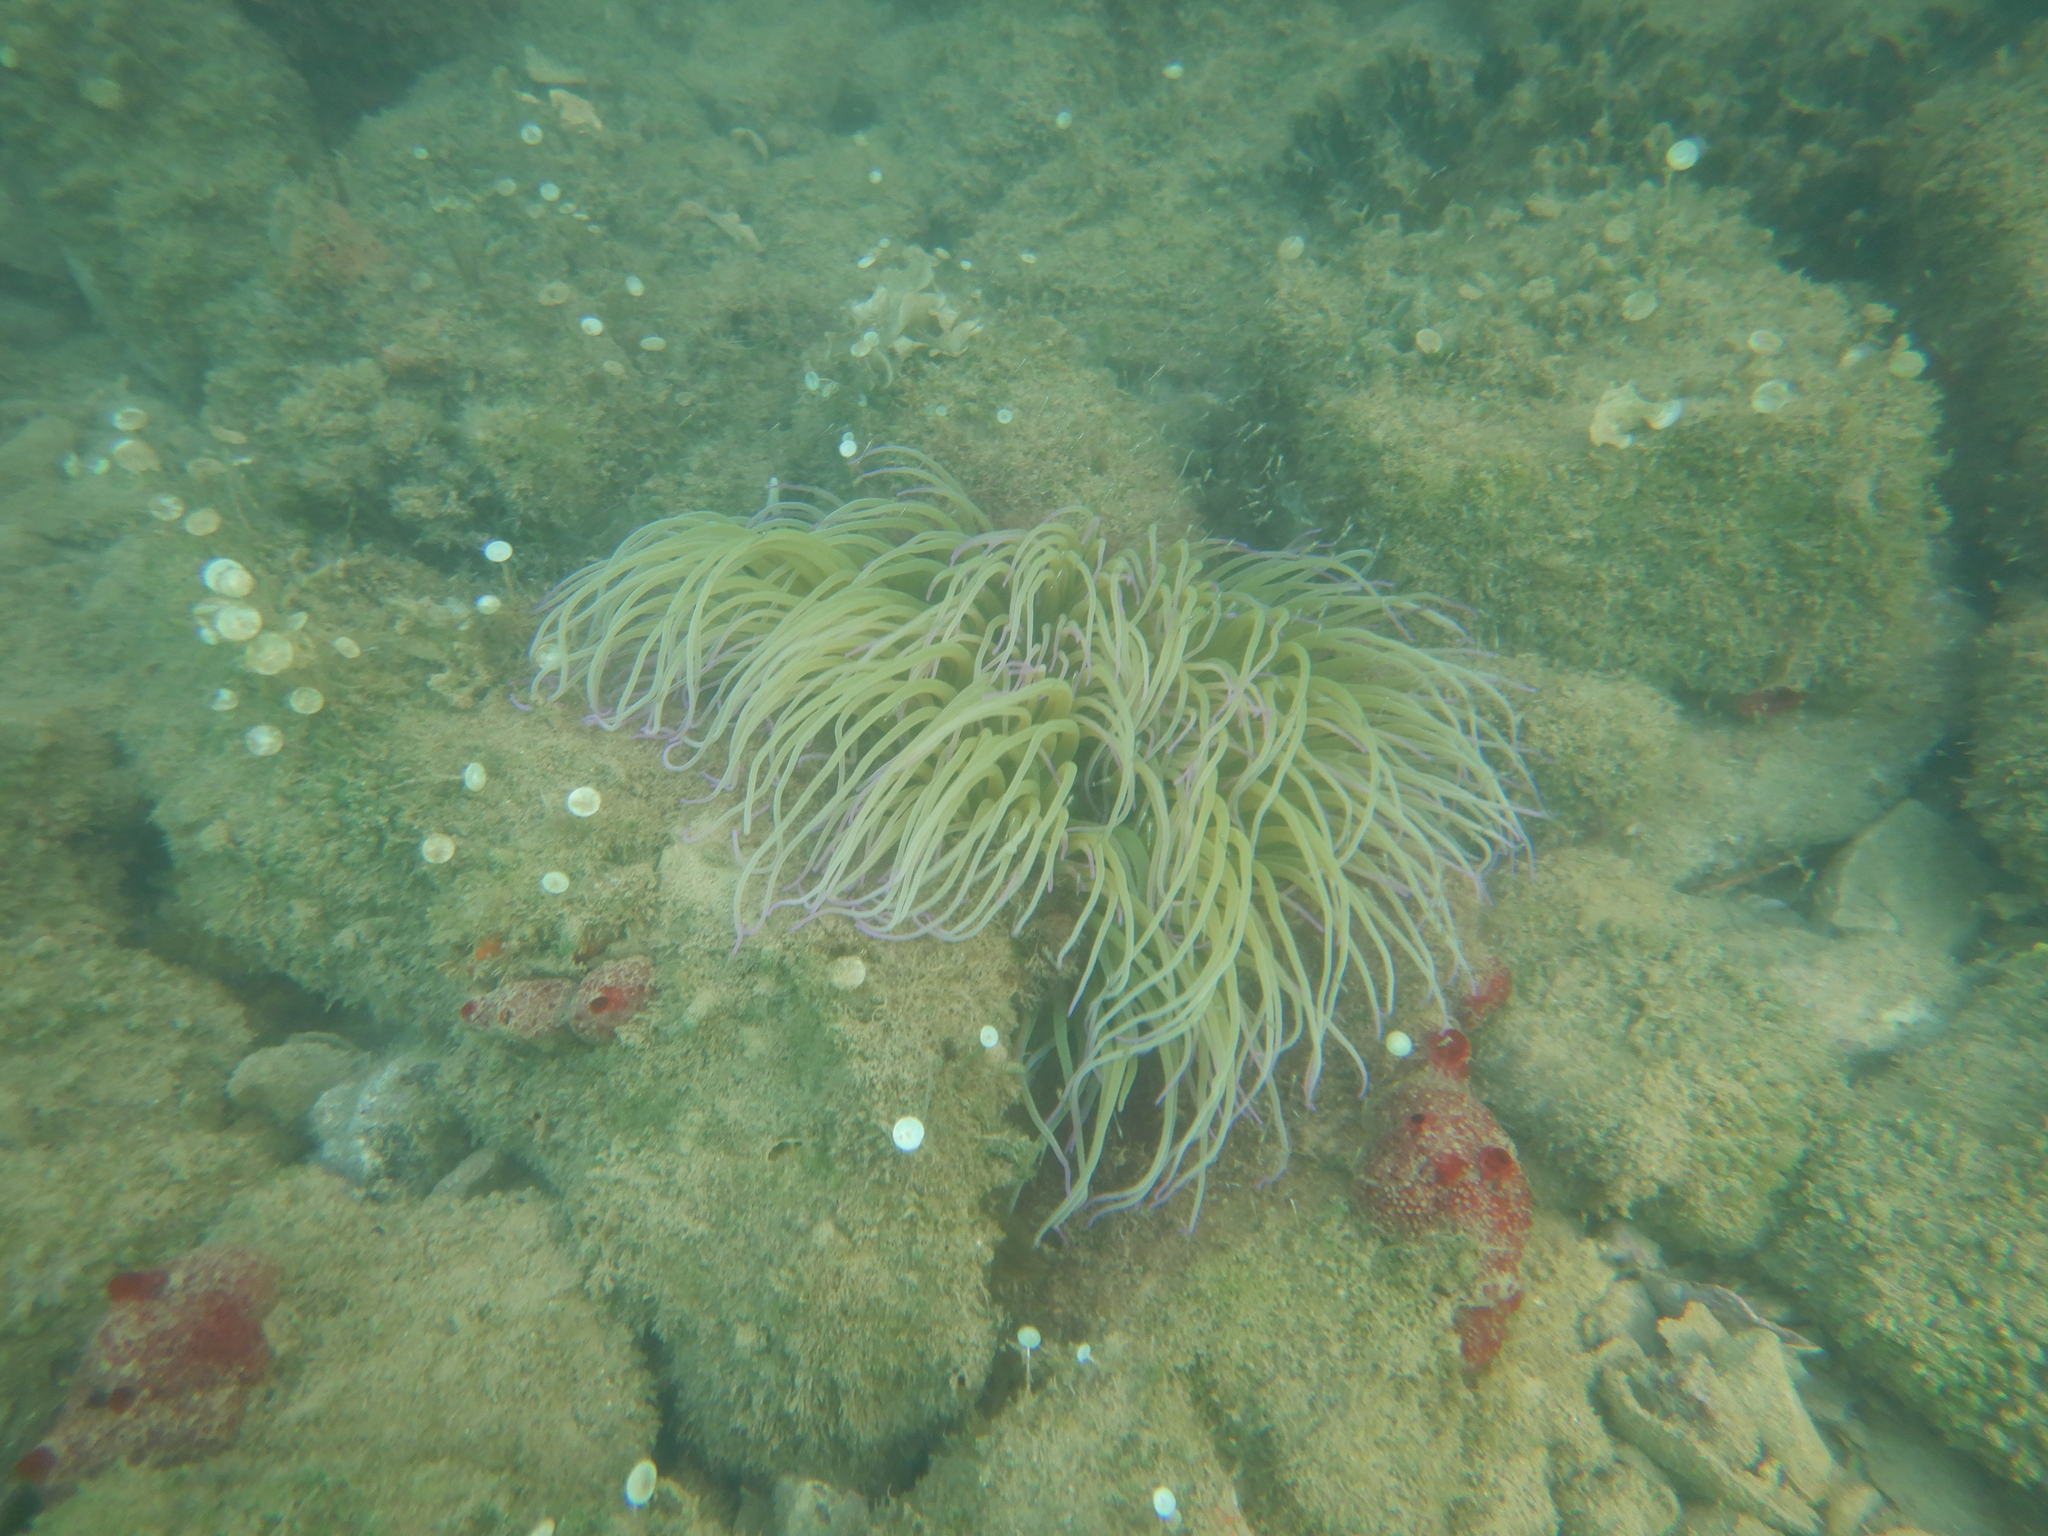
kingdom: Animalia
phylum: Cnidaria
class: Anthozoa
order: Actiniaria
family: Actiniidae
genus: Anemonia
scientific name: Anemonia viridis
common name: Snakelocks anemone
